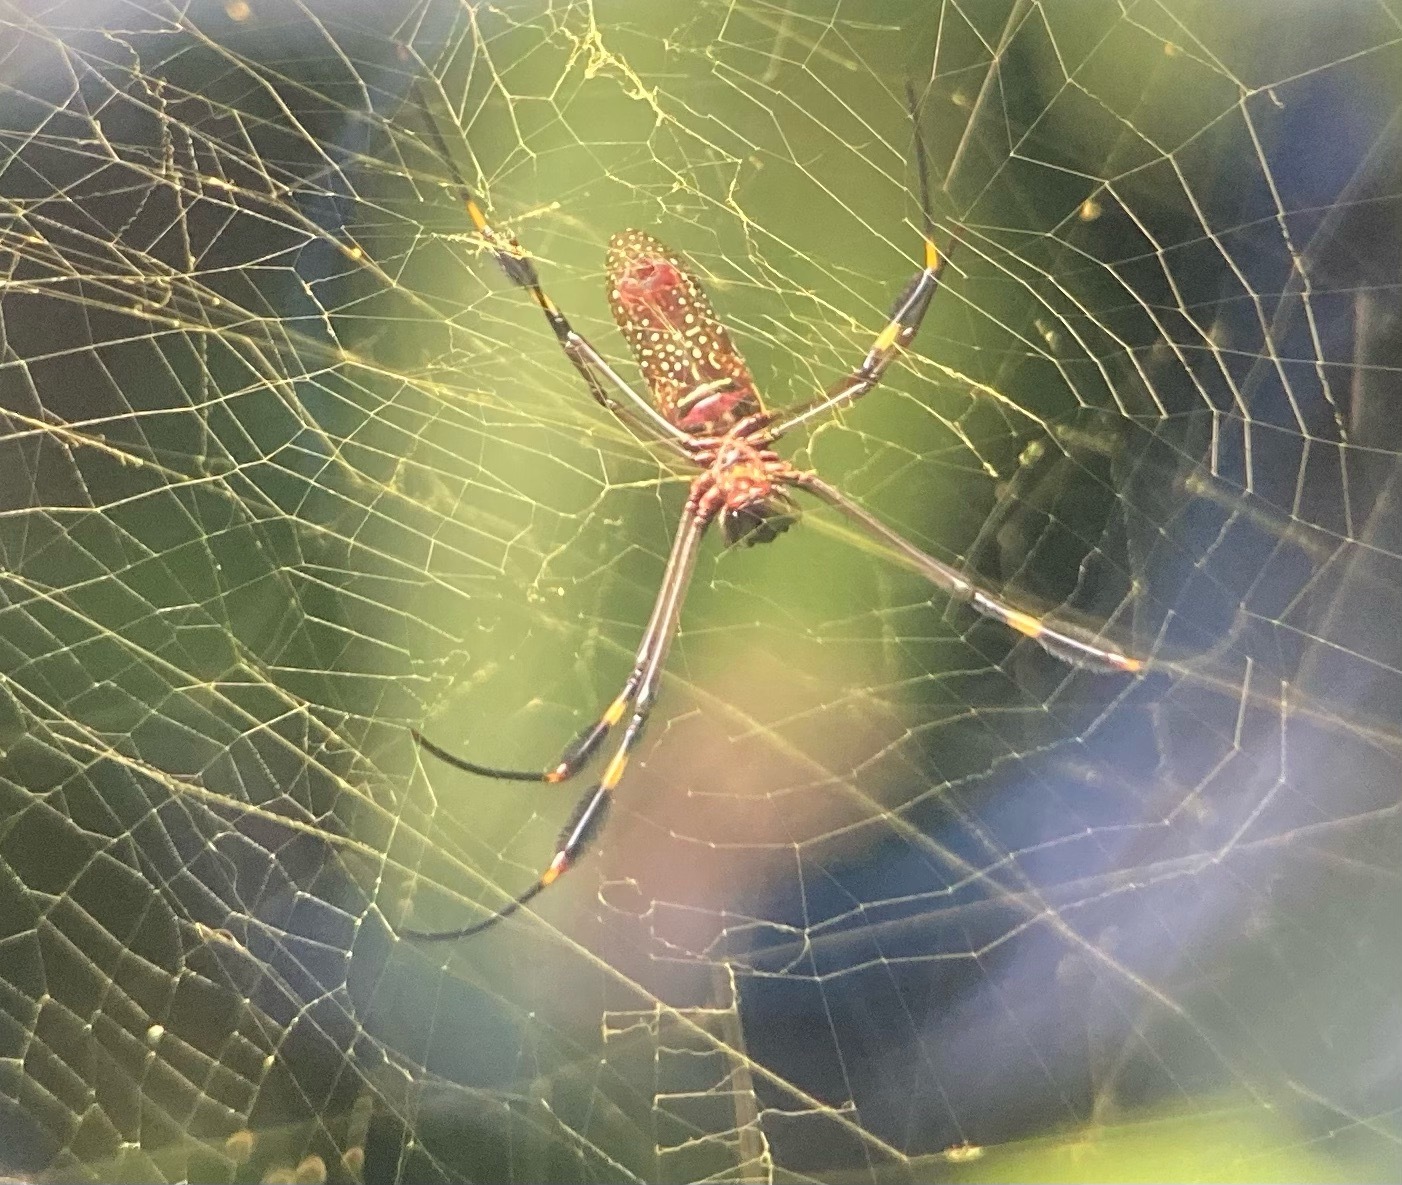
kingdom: Animalia
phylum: Arthropoda
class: Arachnida
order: Araneae
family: Araneidae
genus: Trichonephila
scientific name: Trichonephila clavipes
